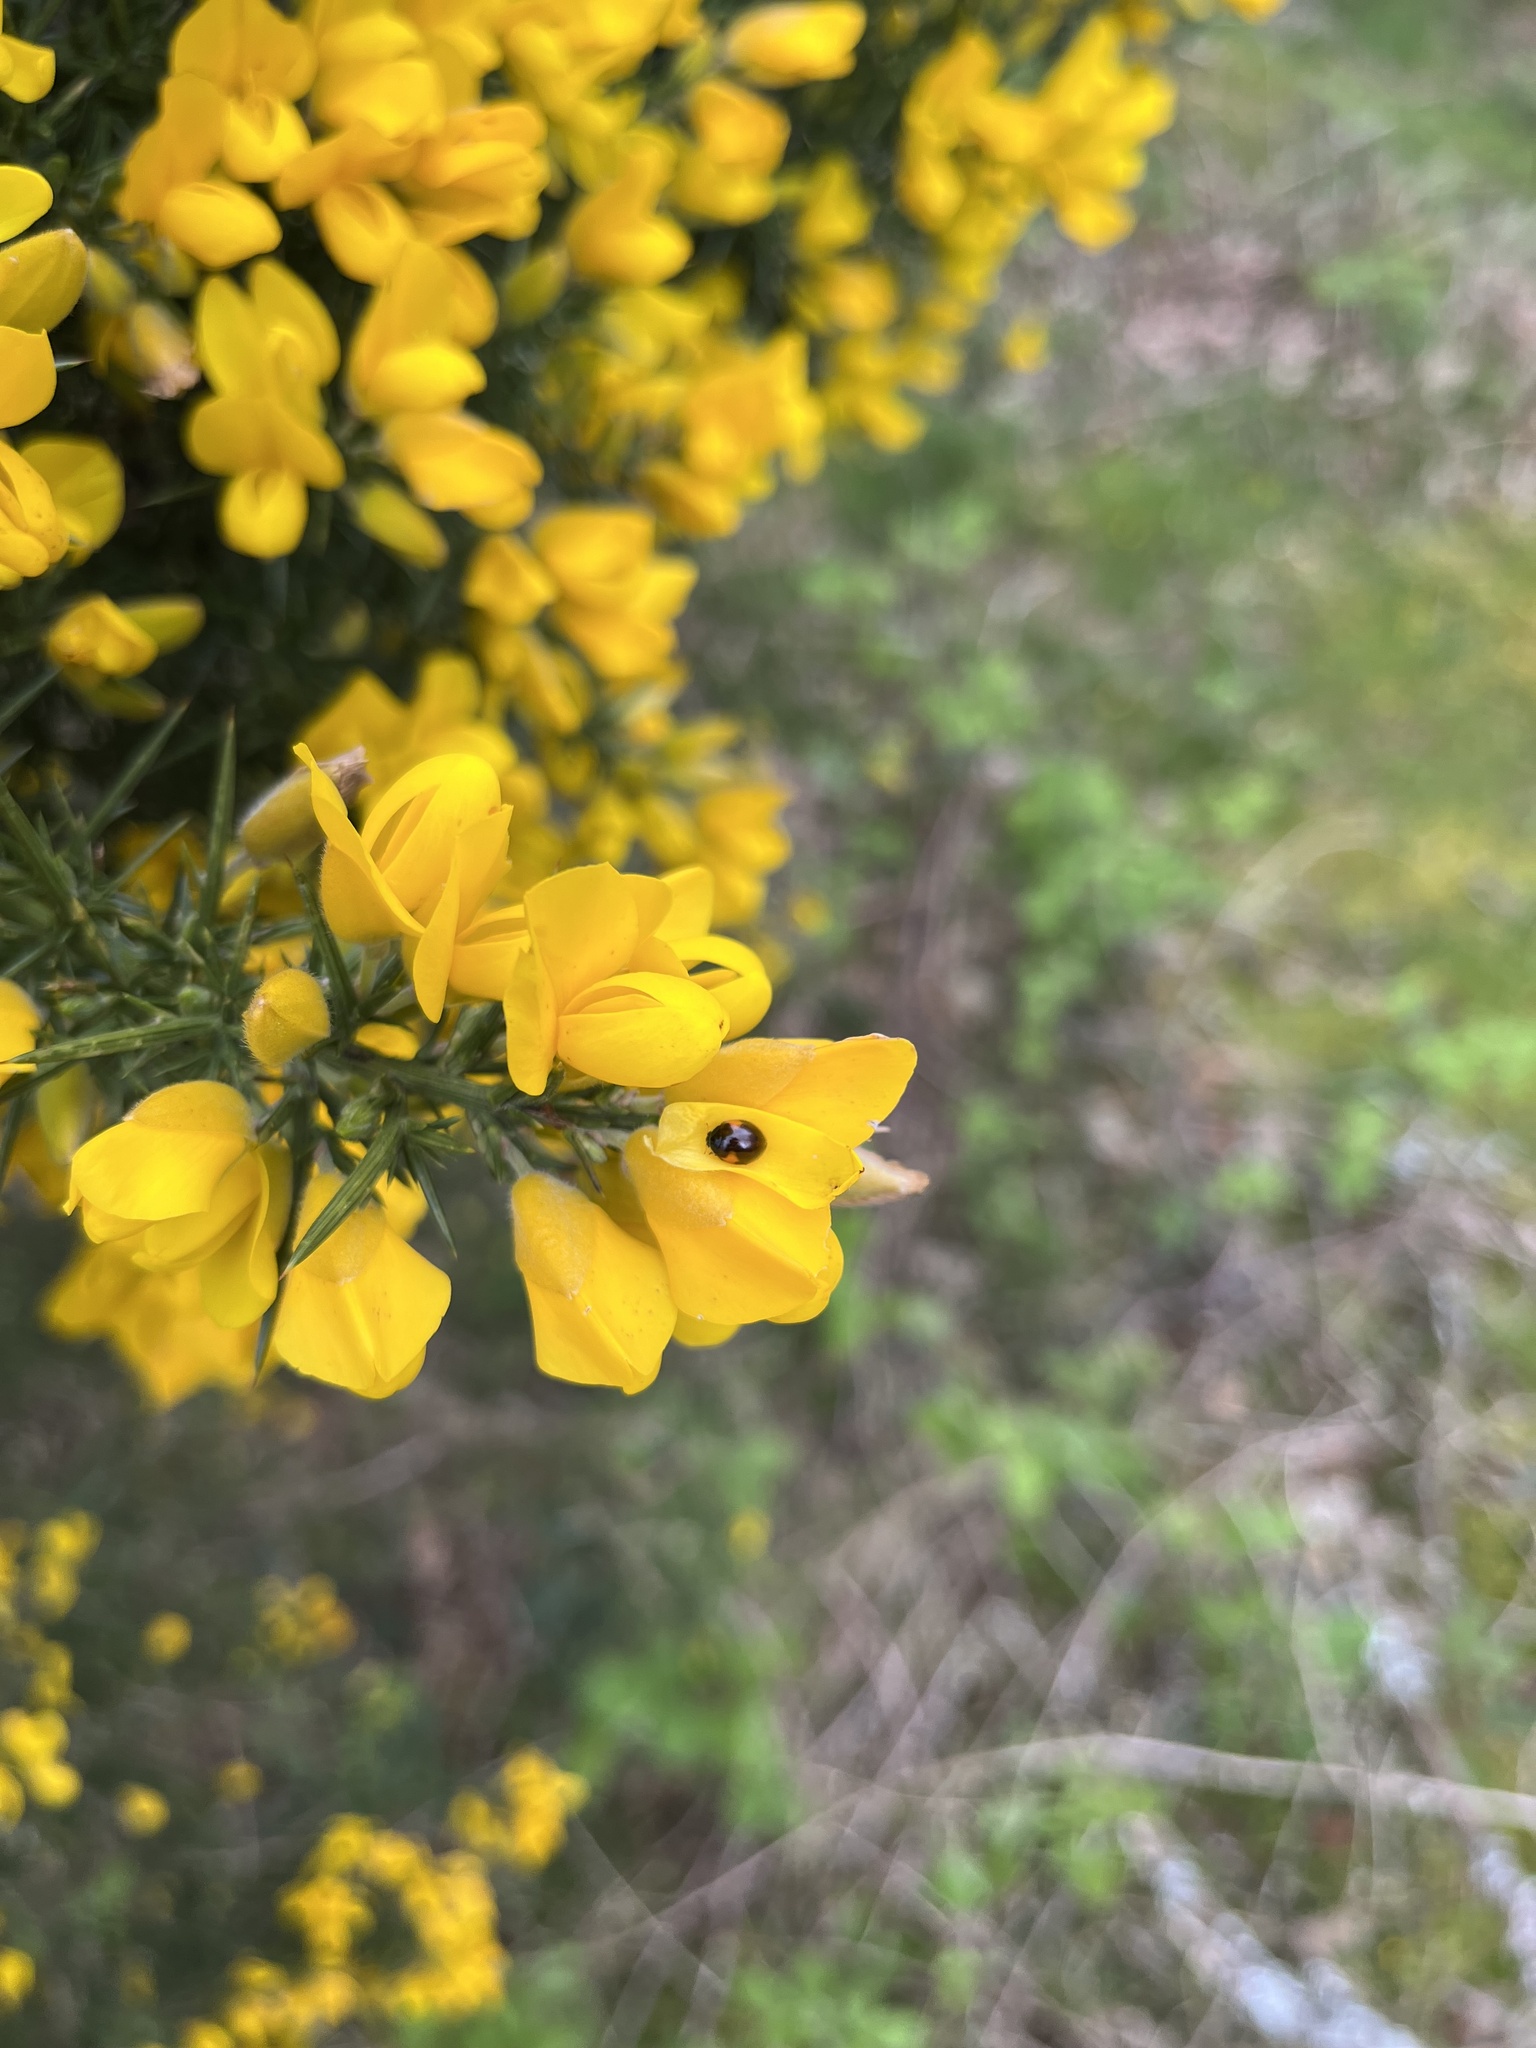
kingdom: Animalia
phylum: Arthropoda
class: Insecta
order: Coleoptera
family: Coccinellidae
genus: Adalia
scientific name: Adalia decempunctata
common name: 10-spot ladybird
